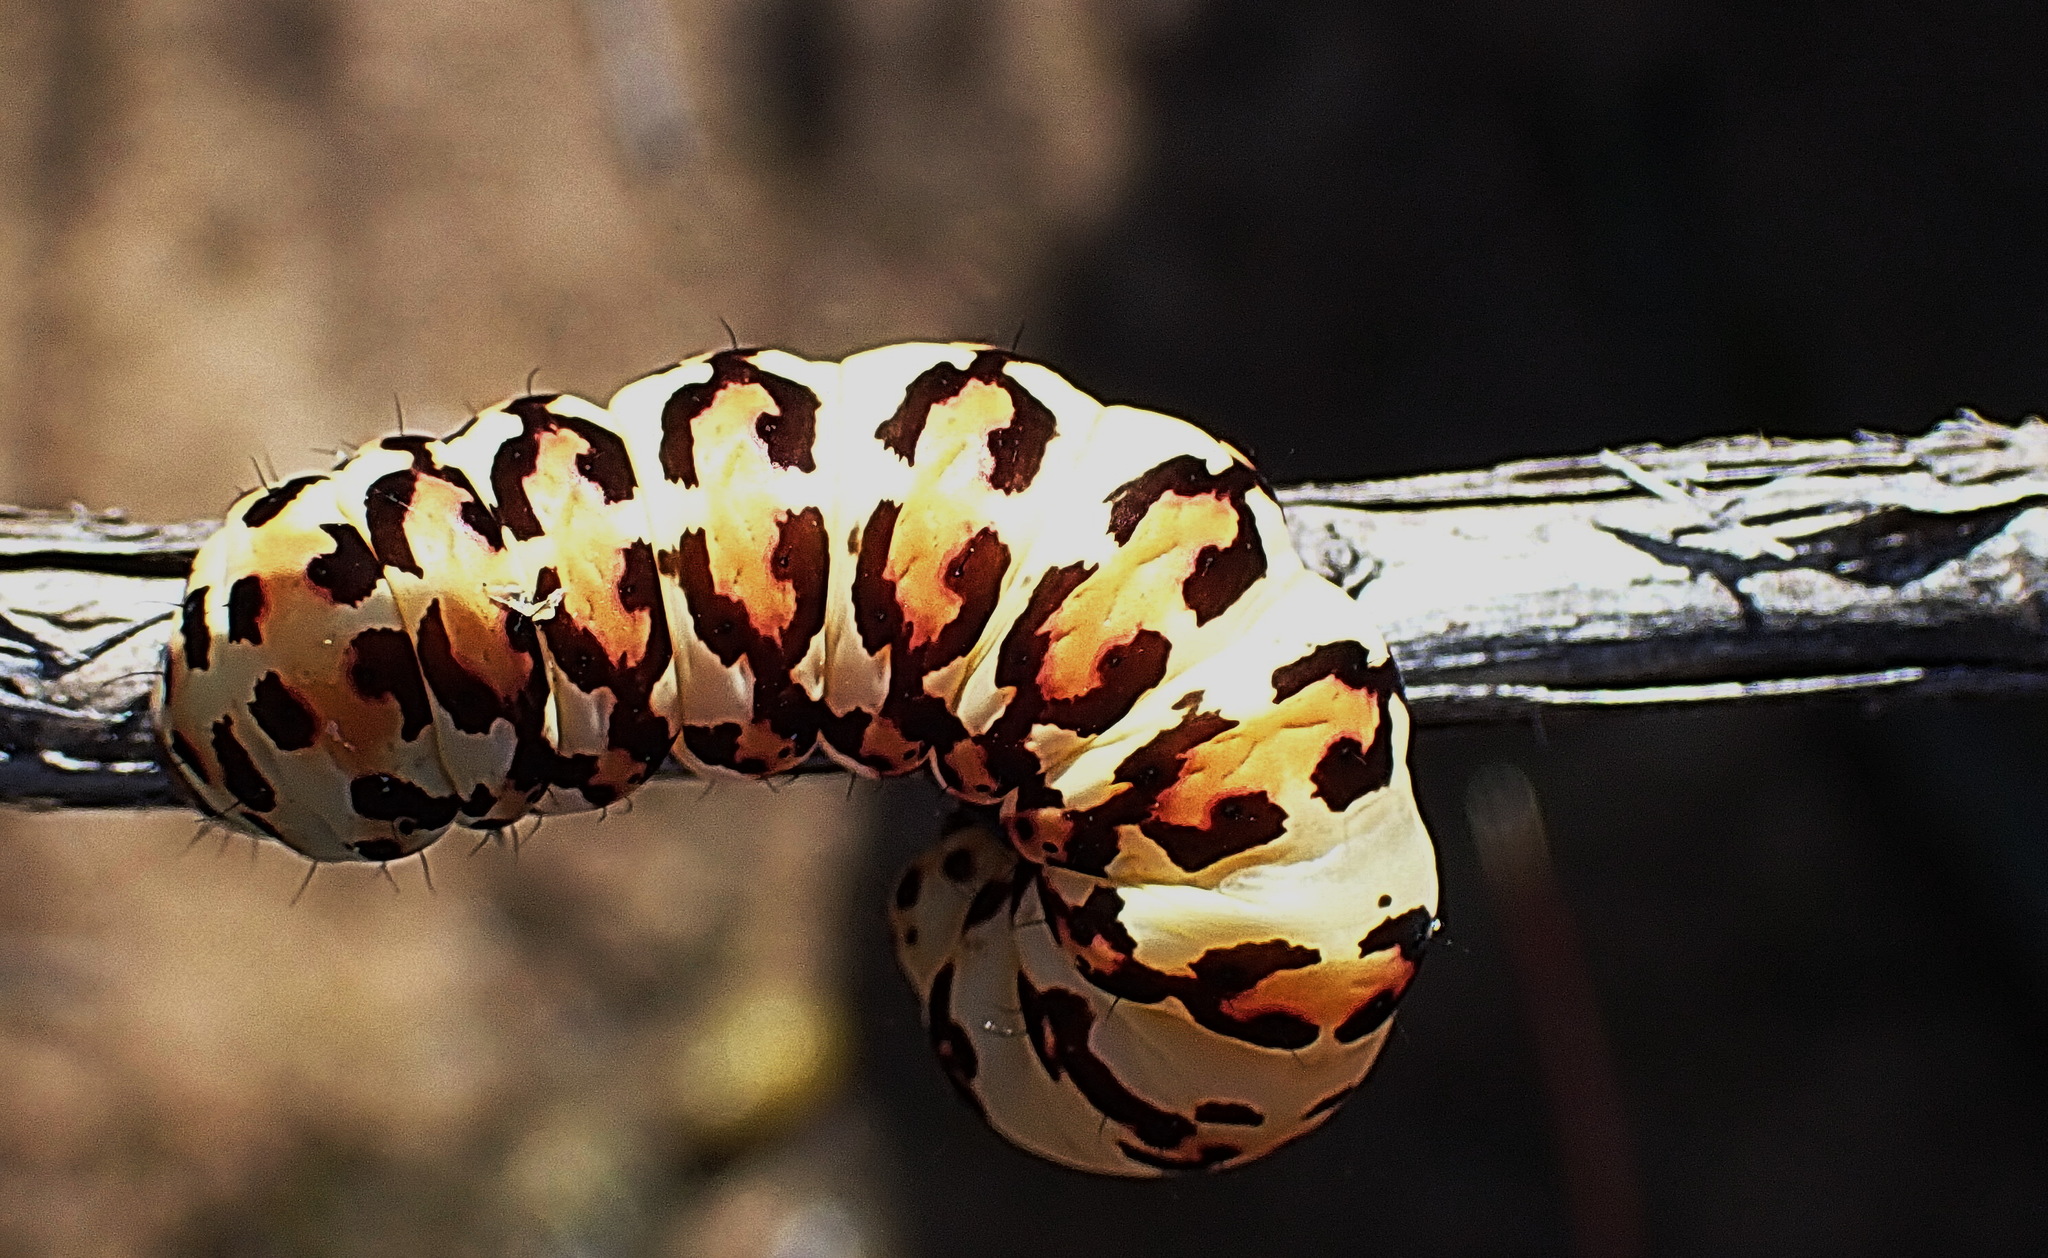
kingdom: Animalia
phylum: Arthropoda
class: Insecta
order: Lepidoptera
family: Noctuidae
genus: Diaphone
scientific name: Diaphone eumela
